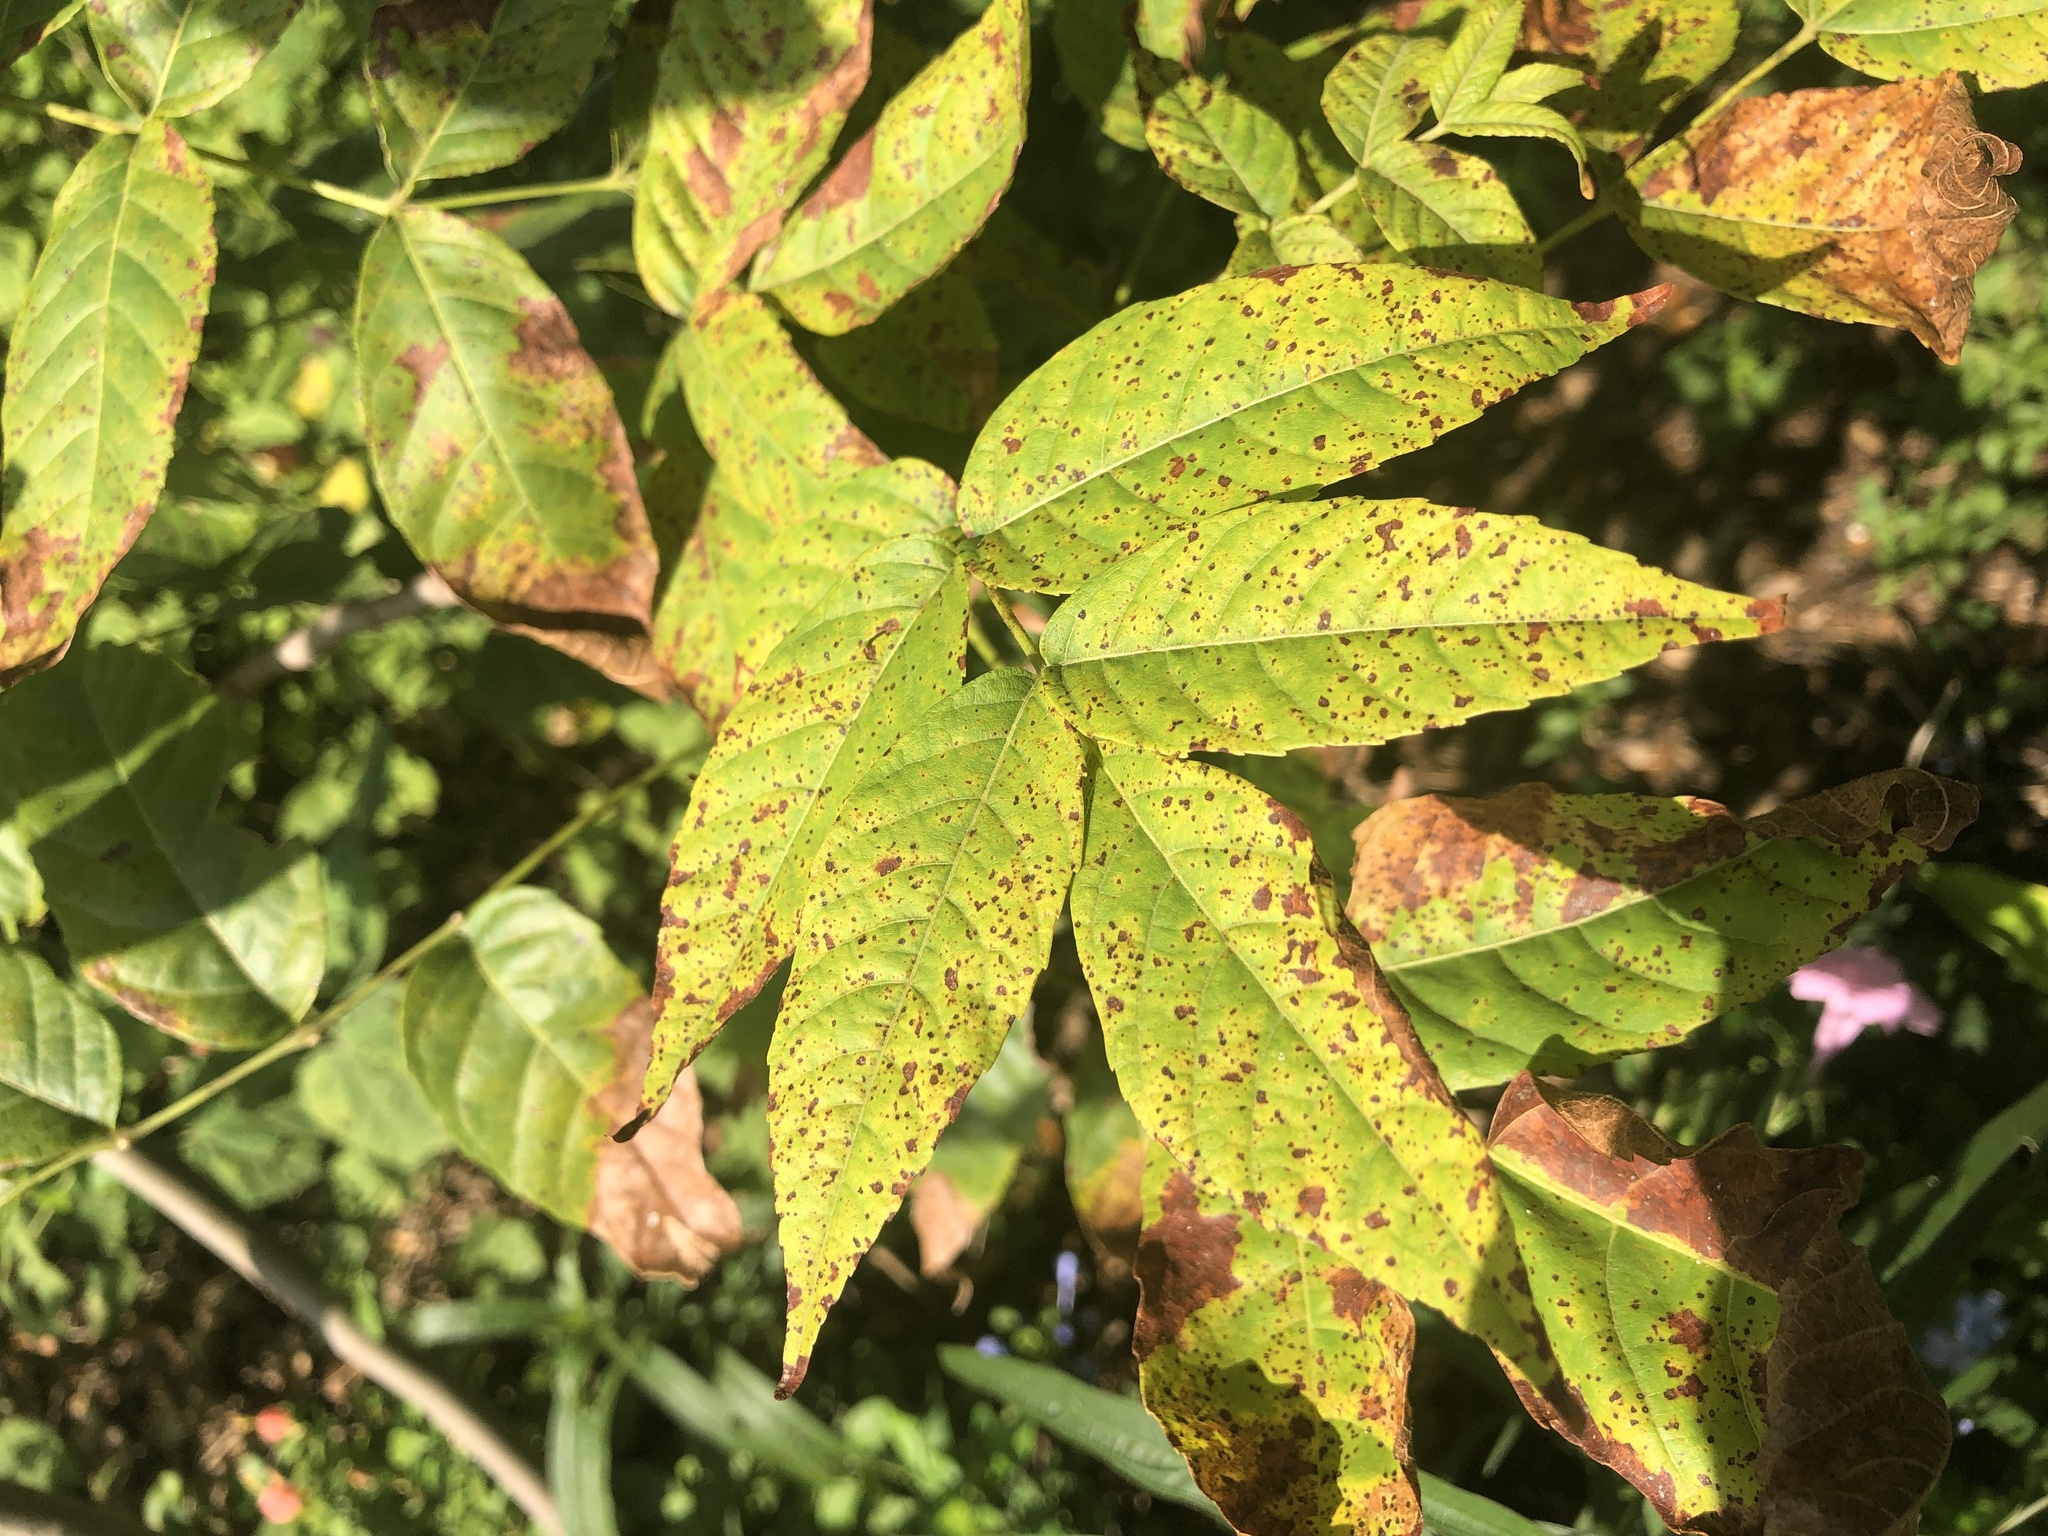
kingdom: Plantae
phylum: Tracheophyta
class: Magnoliopsida
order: Sapindales
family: Sapindaceae
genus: Ungnadia
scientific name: Ungnadia speciosa
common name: Texas-buckeye
